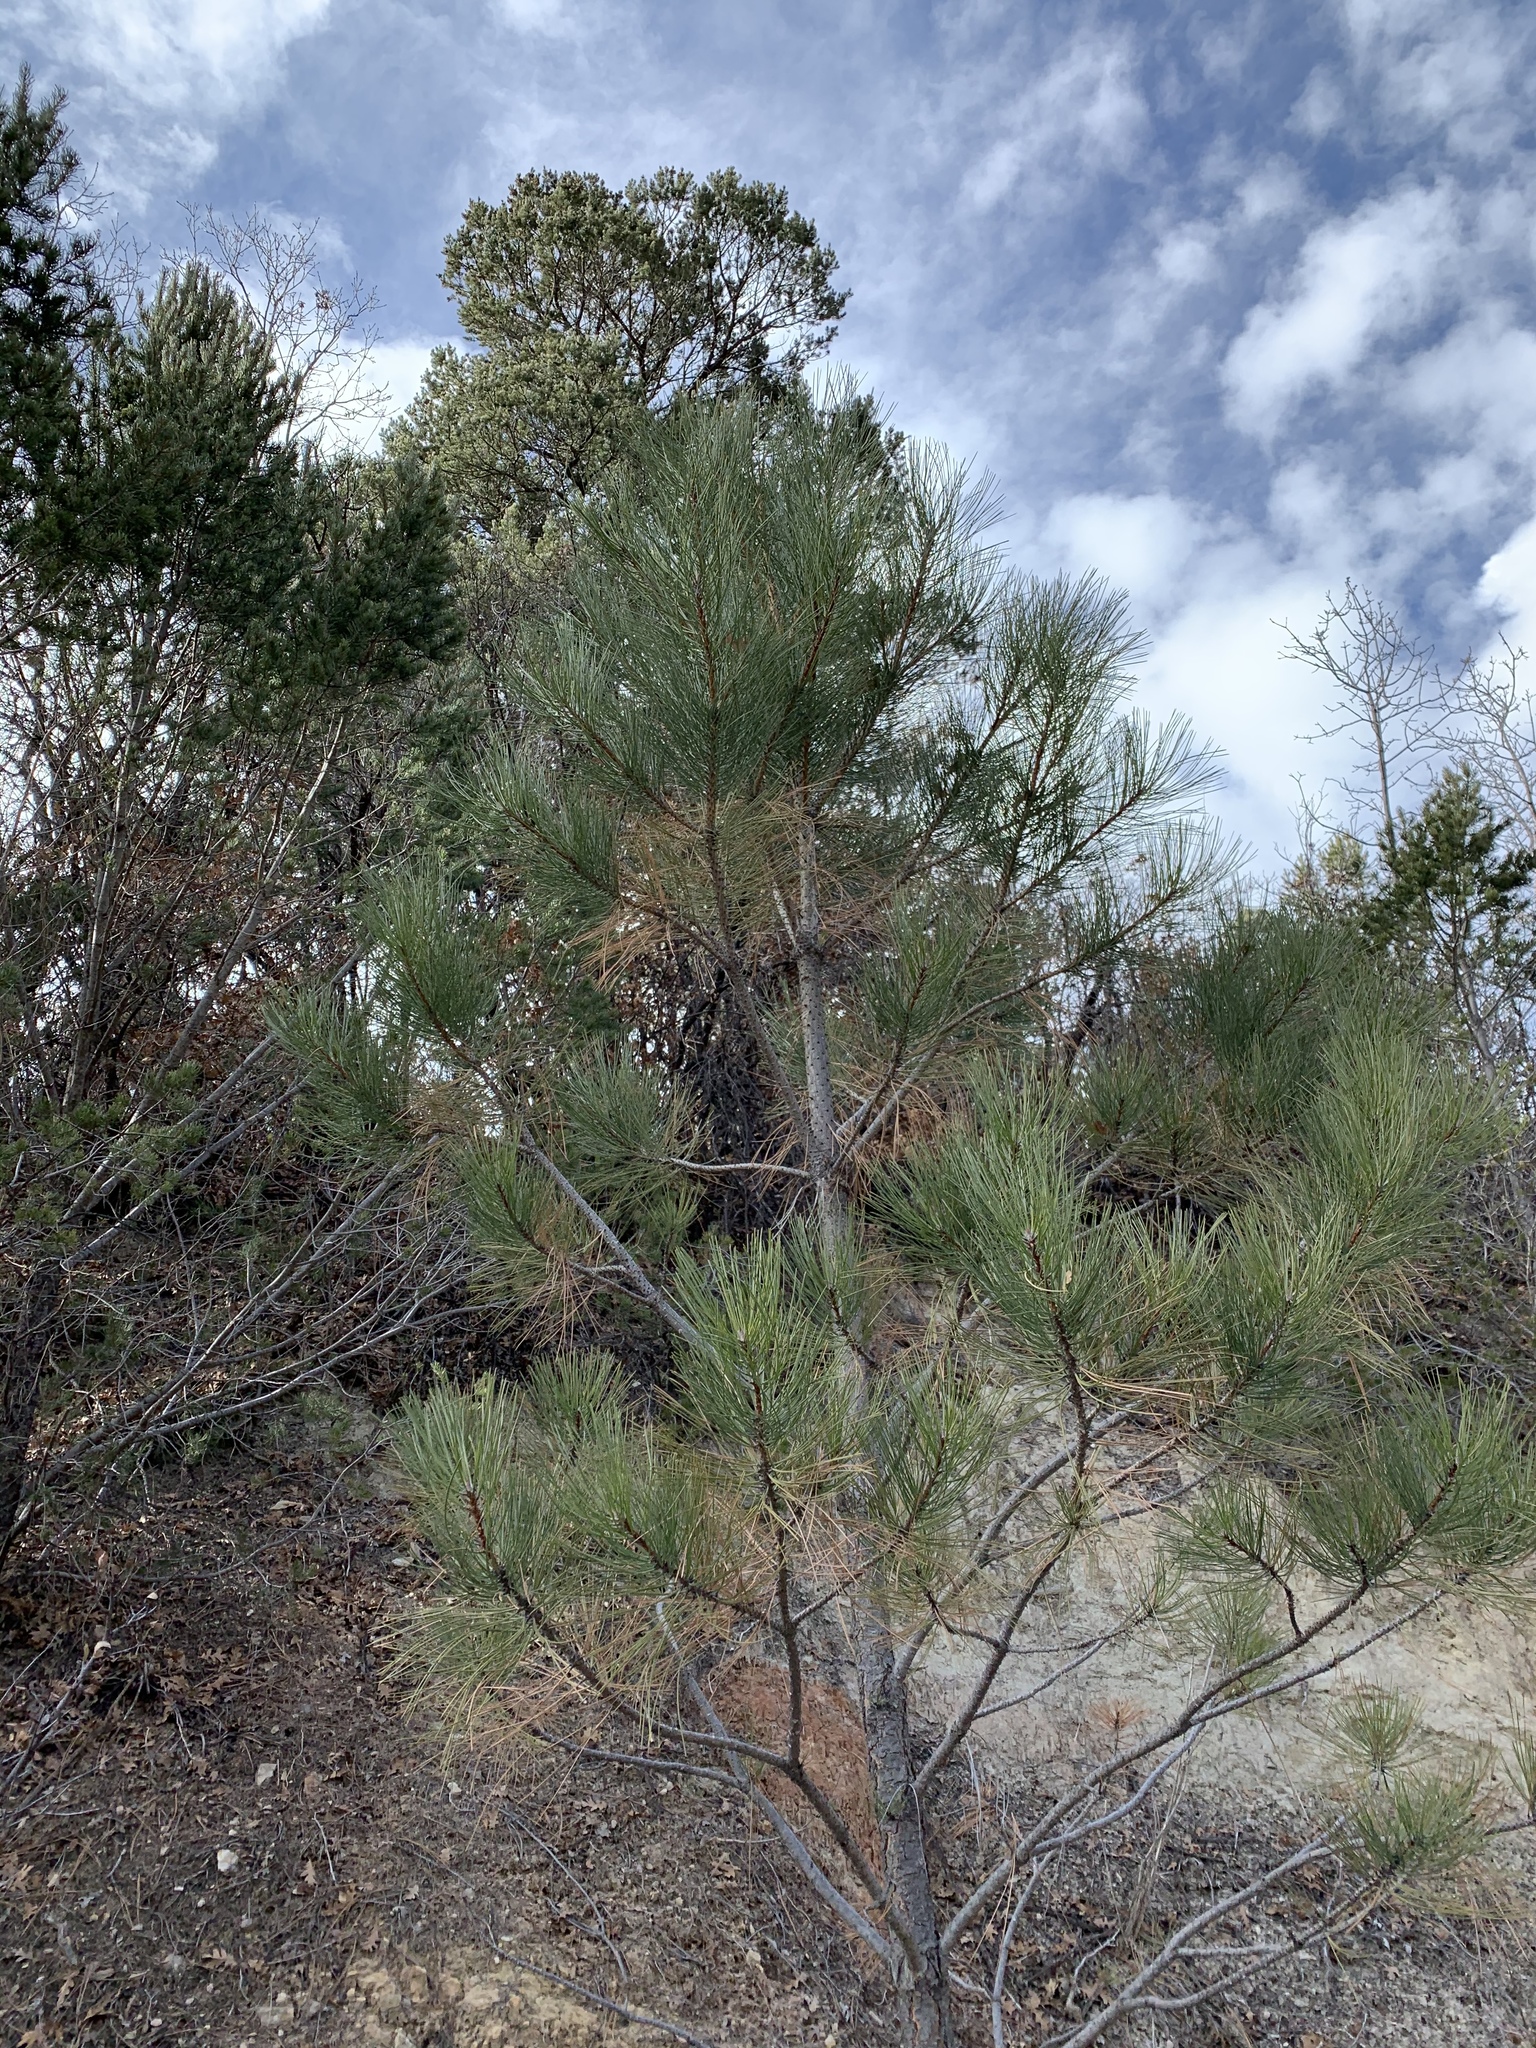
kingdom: Plantae
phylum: Tracheophyta
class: Pinopsida
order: Pinales
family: Pinaceae
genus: Pinus
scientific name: Pinus ponderosa
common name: Western yellow-pine
